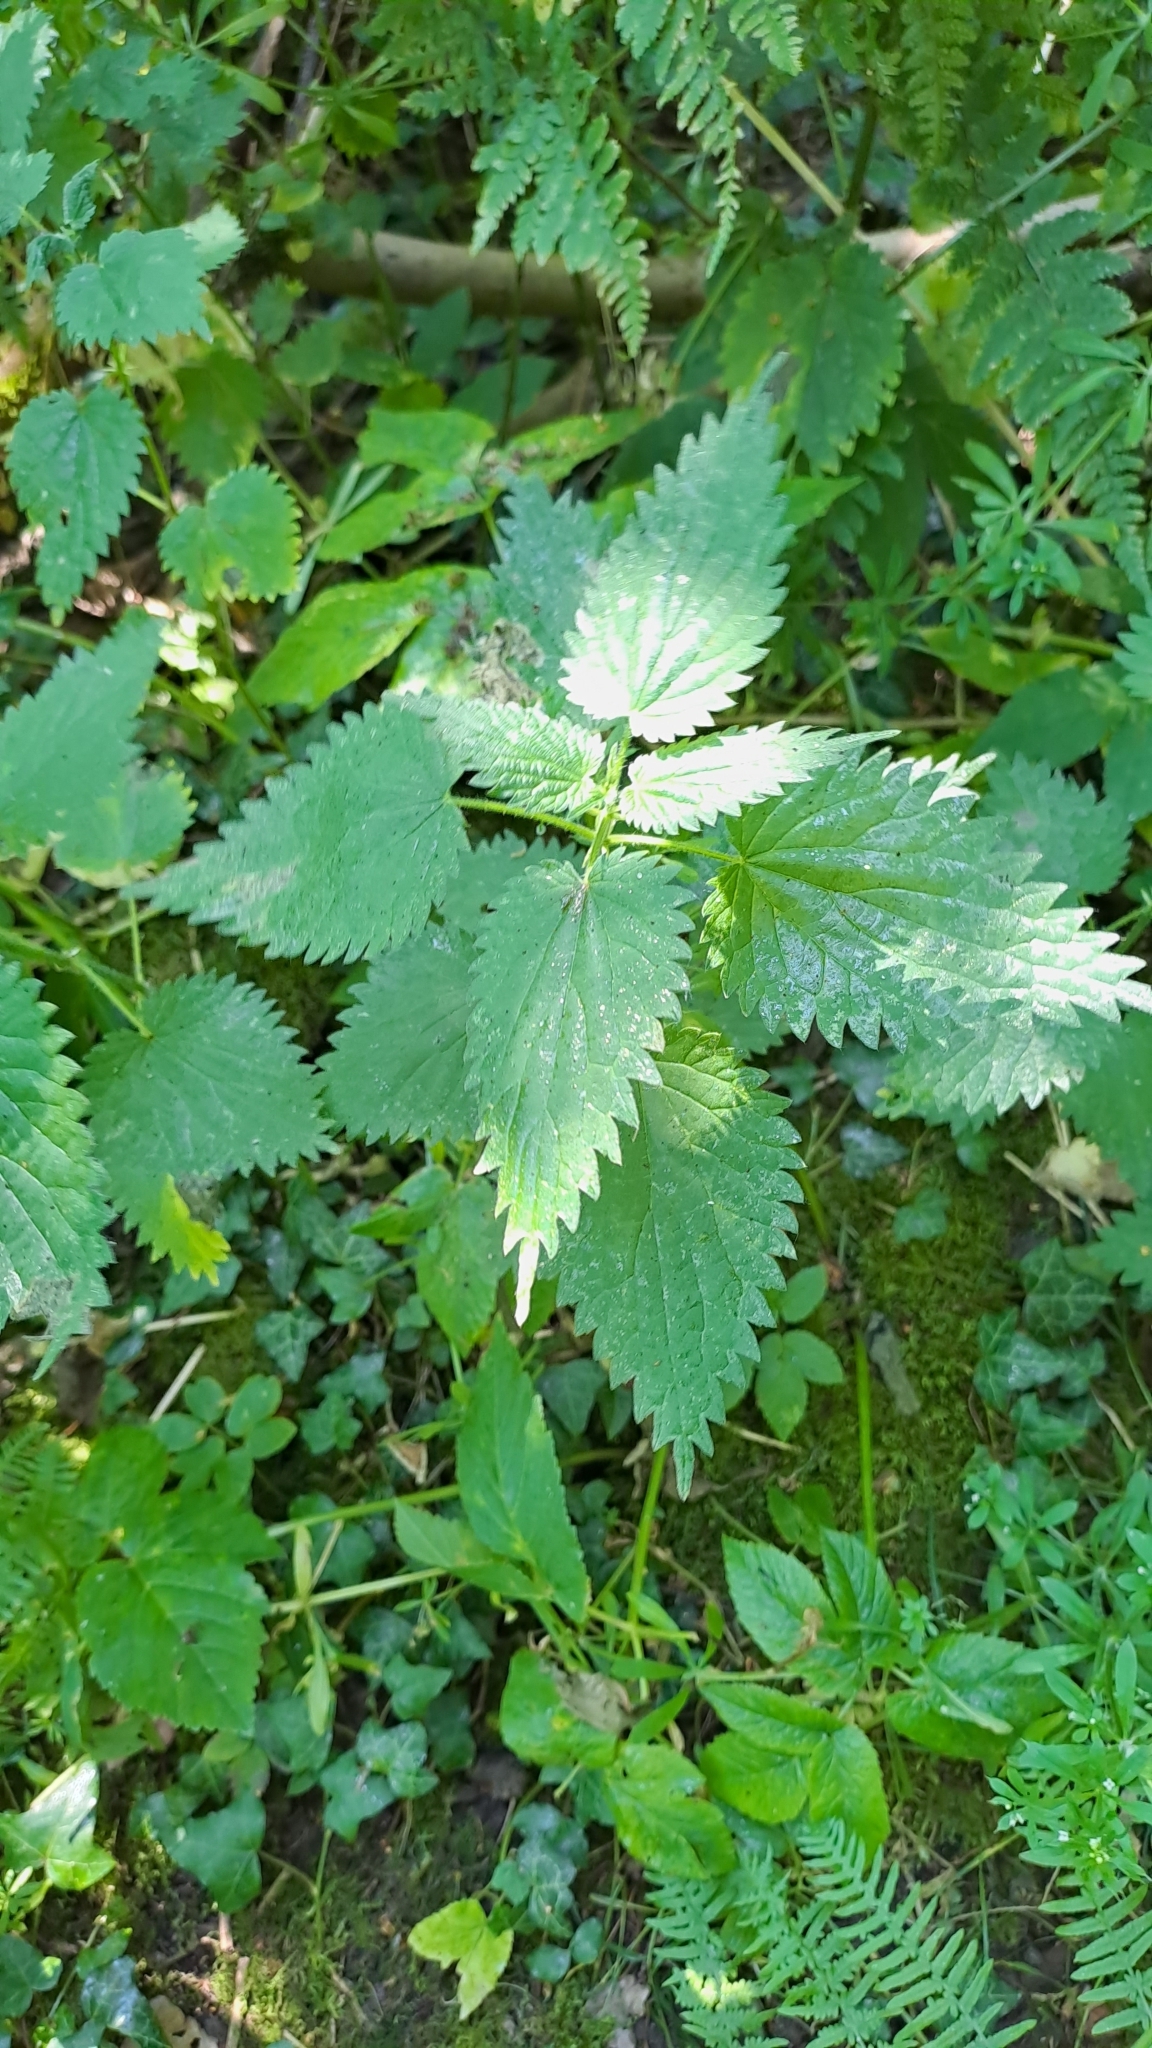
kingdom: Plantae
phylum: Tracheophyta
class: Magnoliopsida
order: Rosales
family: Urticaceae
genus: Urtica
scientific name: Urtica dioica
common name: Common nettle
